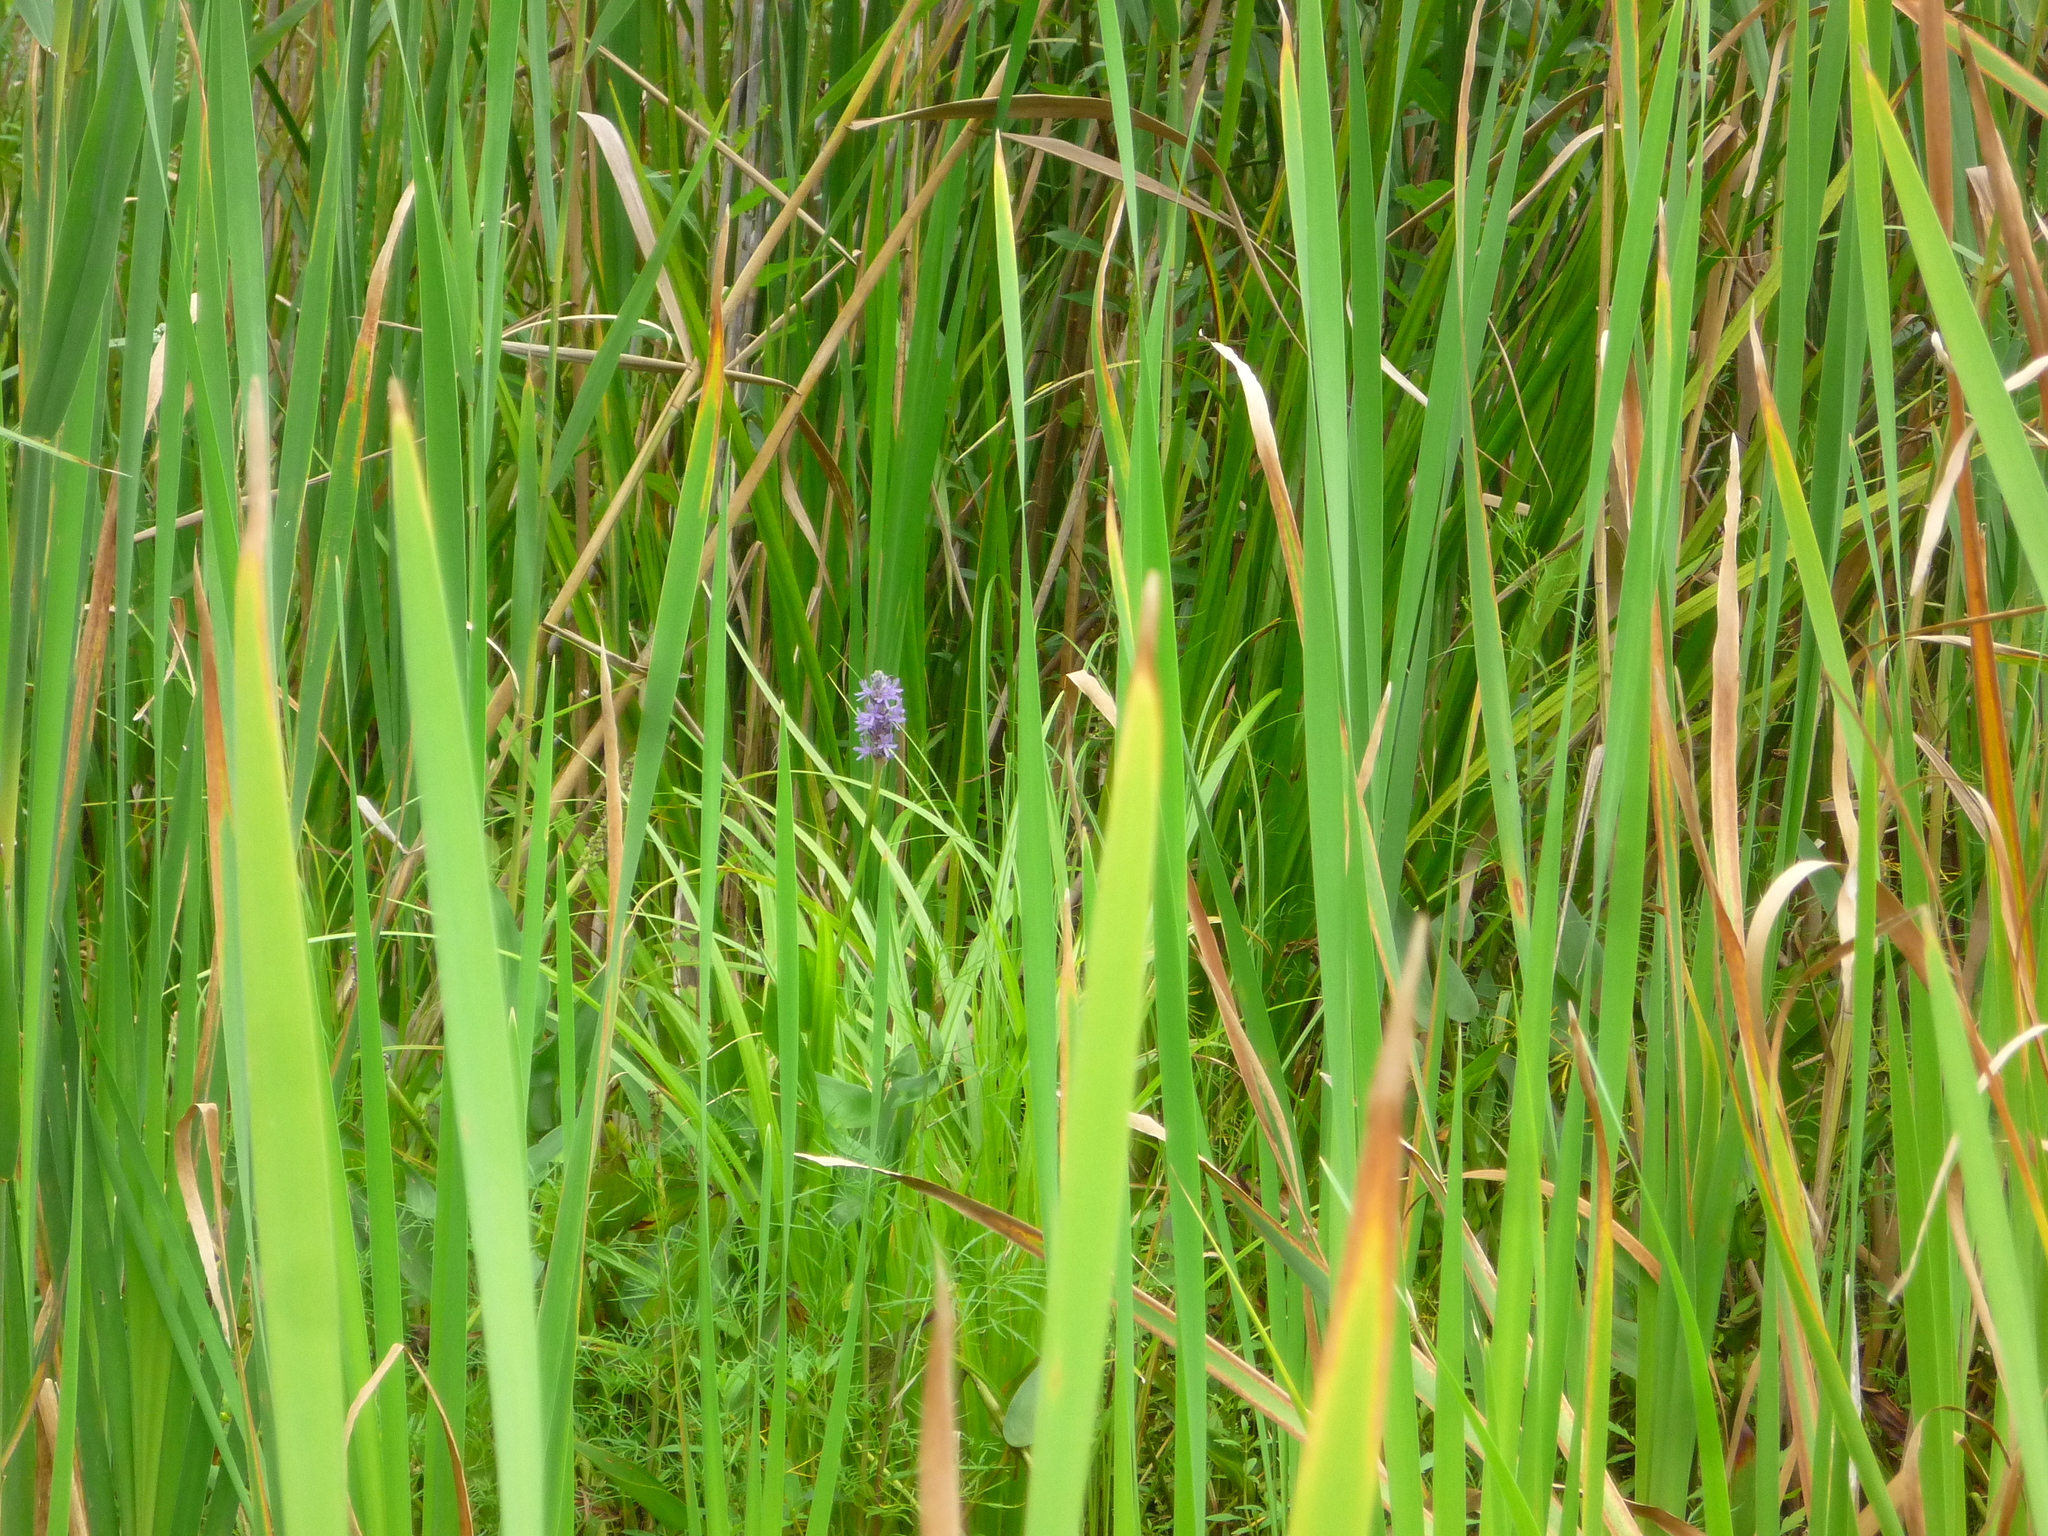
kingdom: Plantae
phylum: Tracheophyta
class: Liliopsida
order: Commelinales
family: Pontederiaceae
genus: Pontederia
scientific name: Pontederia cordata
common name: Pickerelweed
